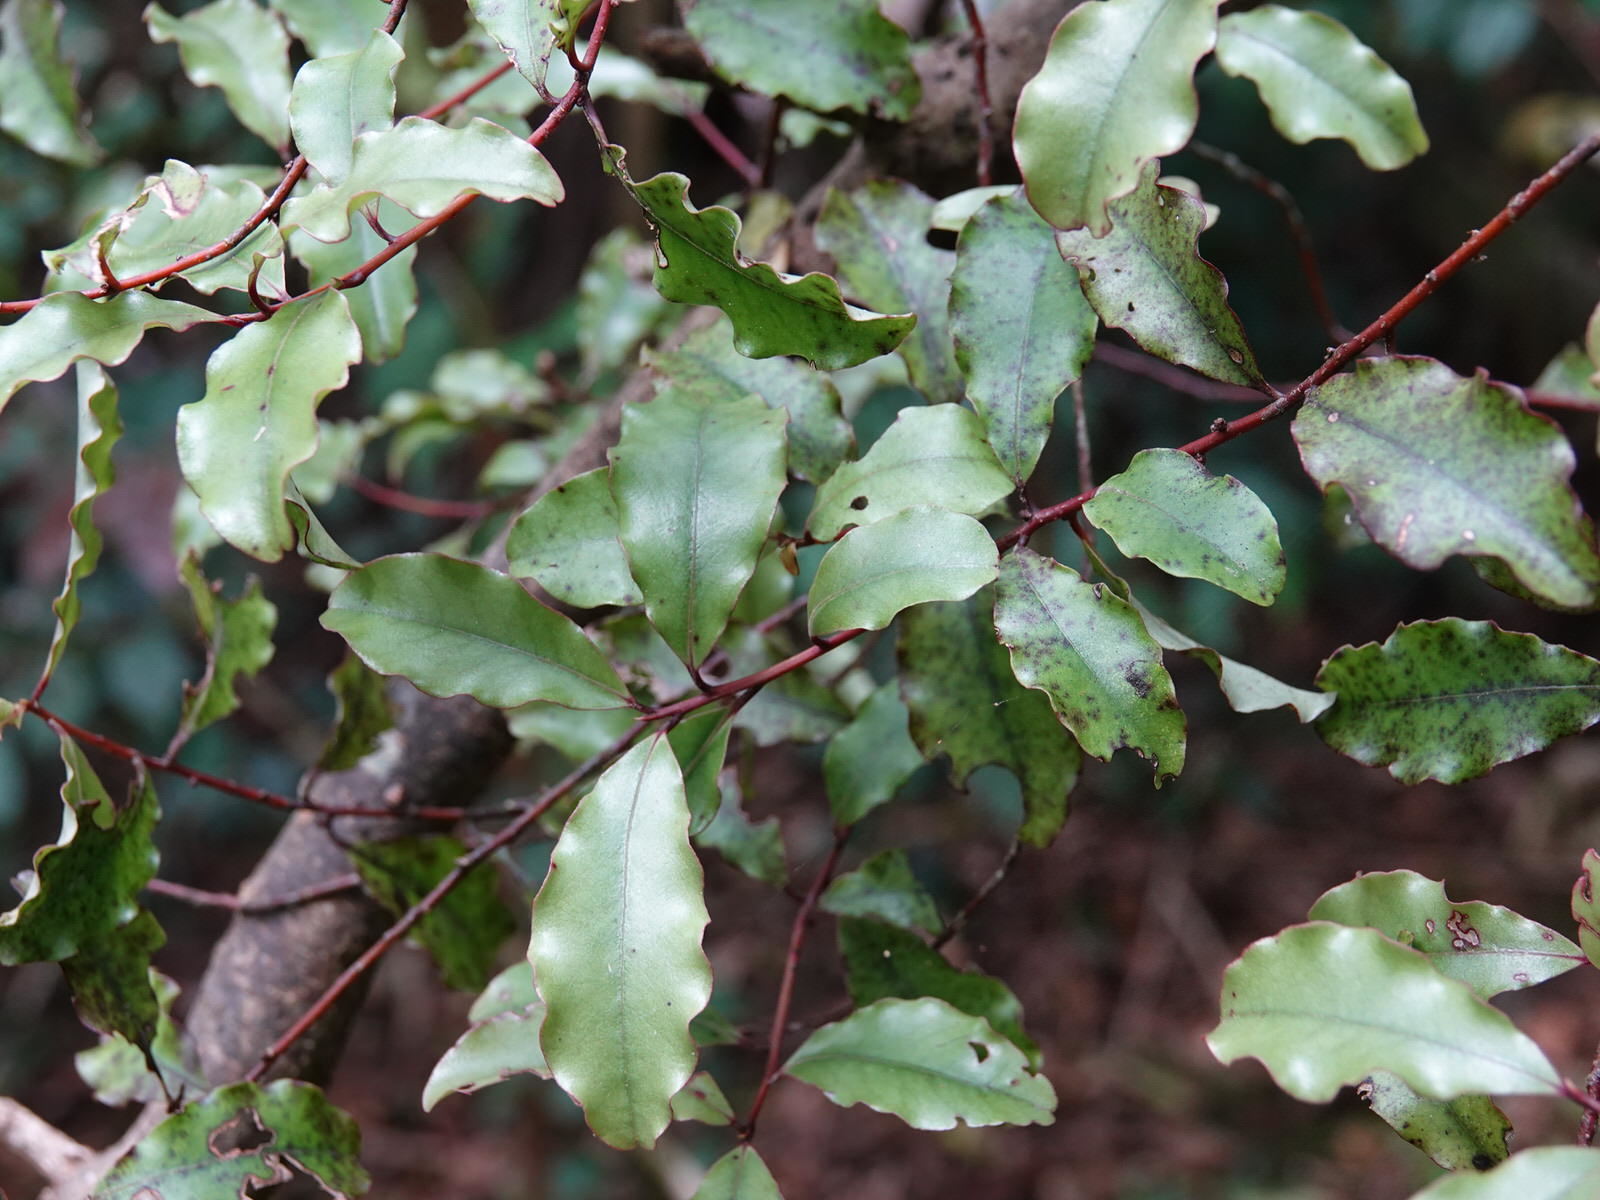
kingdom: Plantae
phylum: Tracheophyta
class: Magnoliopsida
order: Ericales
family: Primulaceae
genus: Myrsine
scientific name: Myrsine australis
